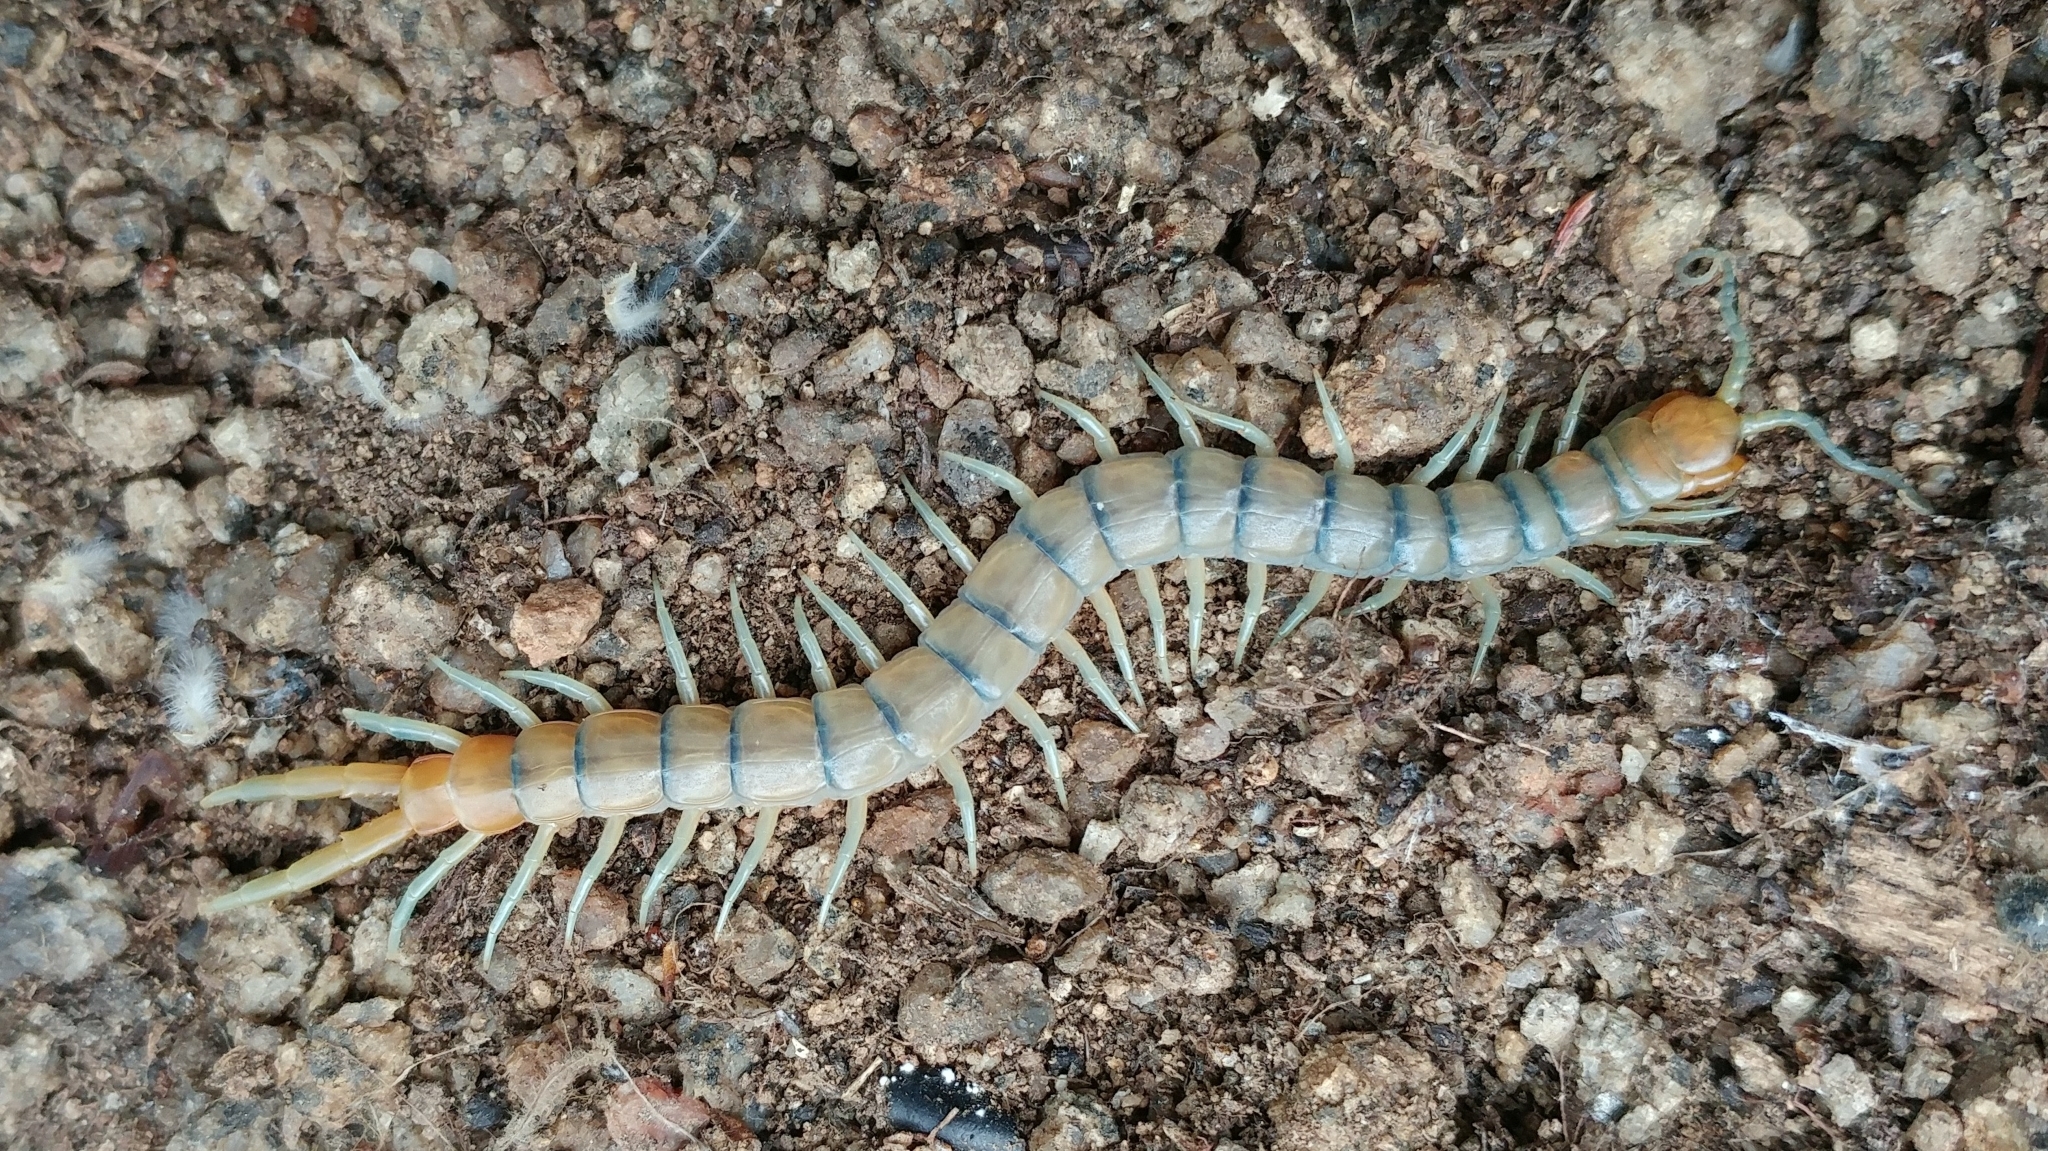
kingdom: Animalia
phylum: Arthropoda
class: Chilopoda
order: Scolopendromorpha
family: Scolopendridae
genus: Scolopendra
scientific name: Scolopendra polymorpha
